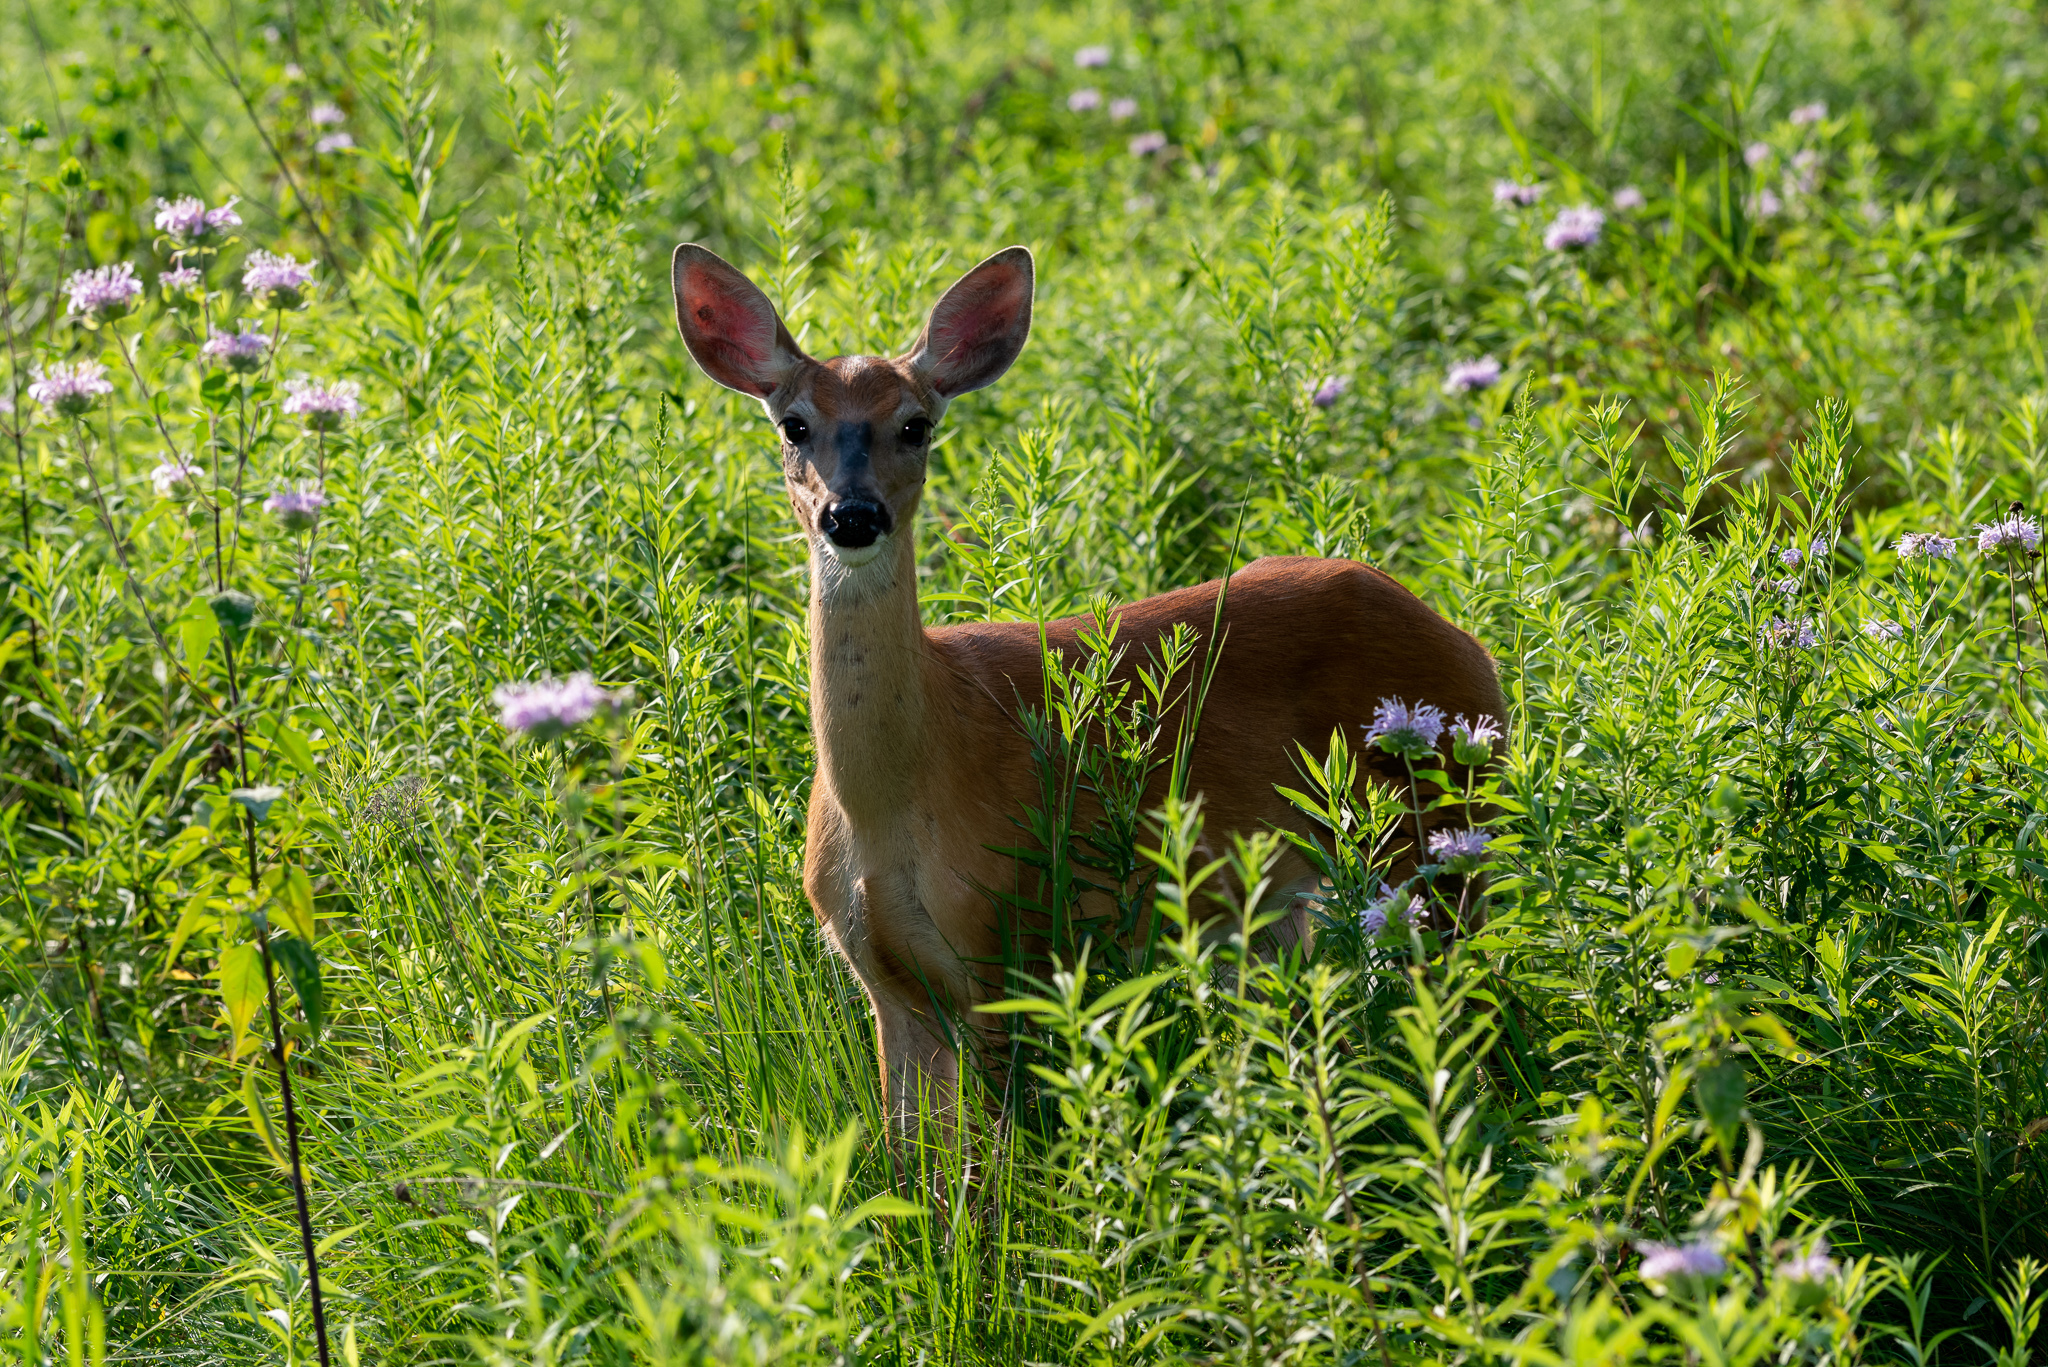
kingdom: Animalia
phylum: Chordata
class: Mammalia
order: Artiodactyla
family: Cervidae
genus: Odocoileus
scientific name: Odocoileus virginianus
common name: White-tailed deer
